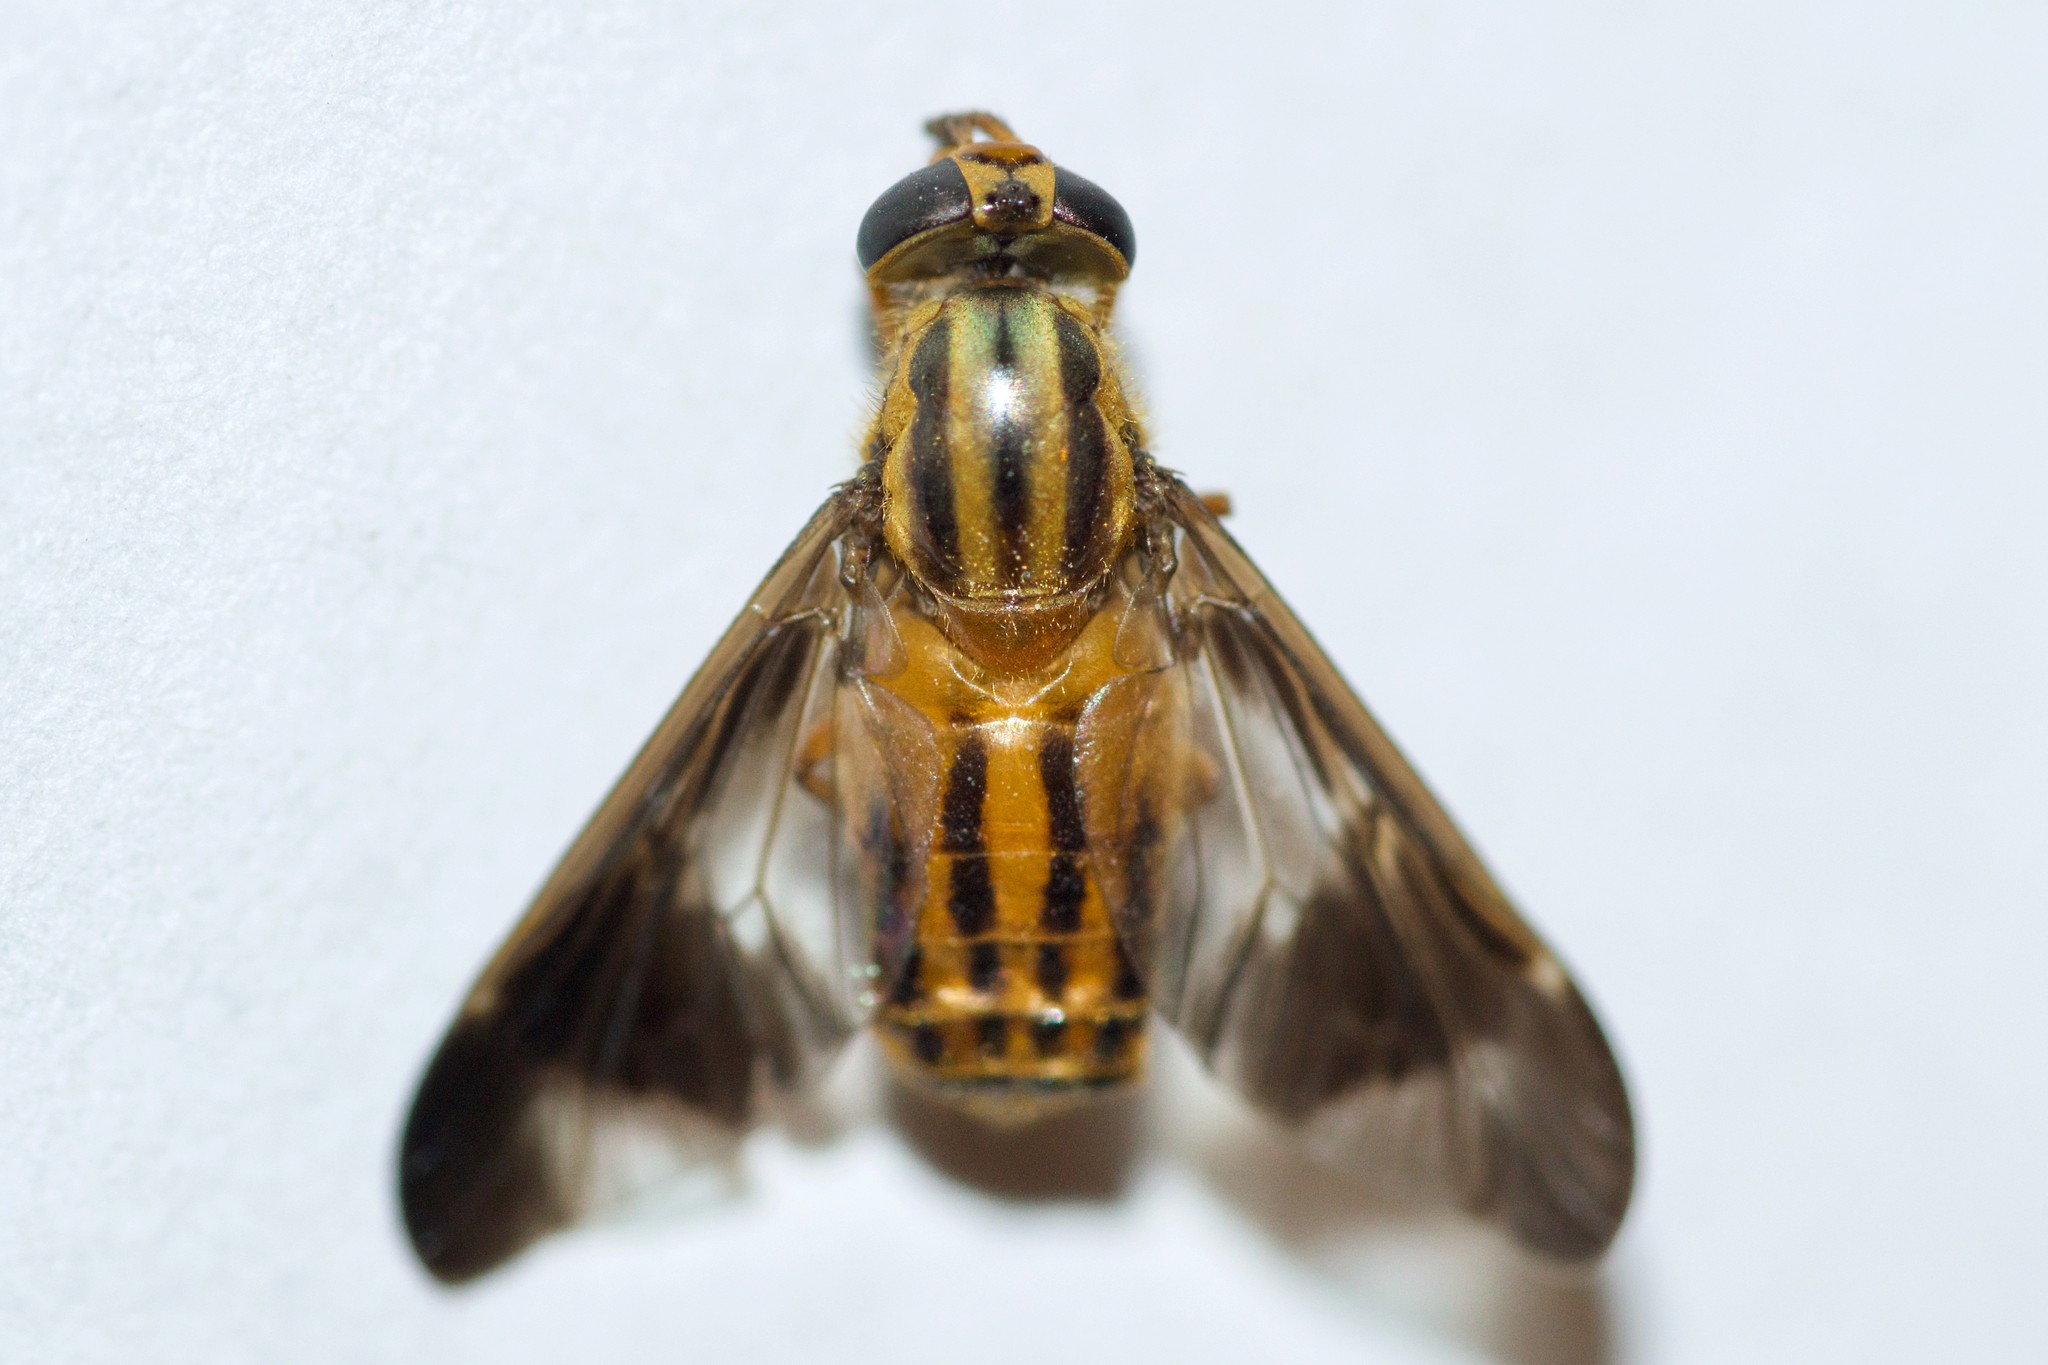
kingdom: Animalia
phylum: Arthropoda
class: Insecta
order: Diptera
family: Tabanidae
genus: Chrysops
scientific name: Chrysops vittatus
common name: Striped deer fly
